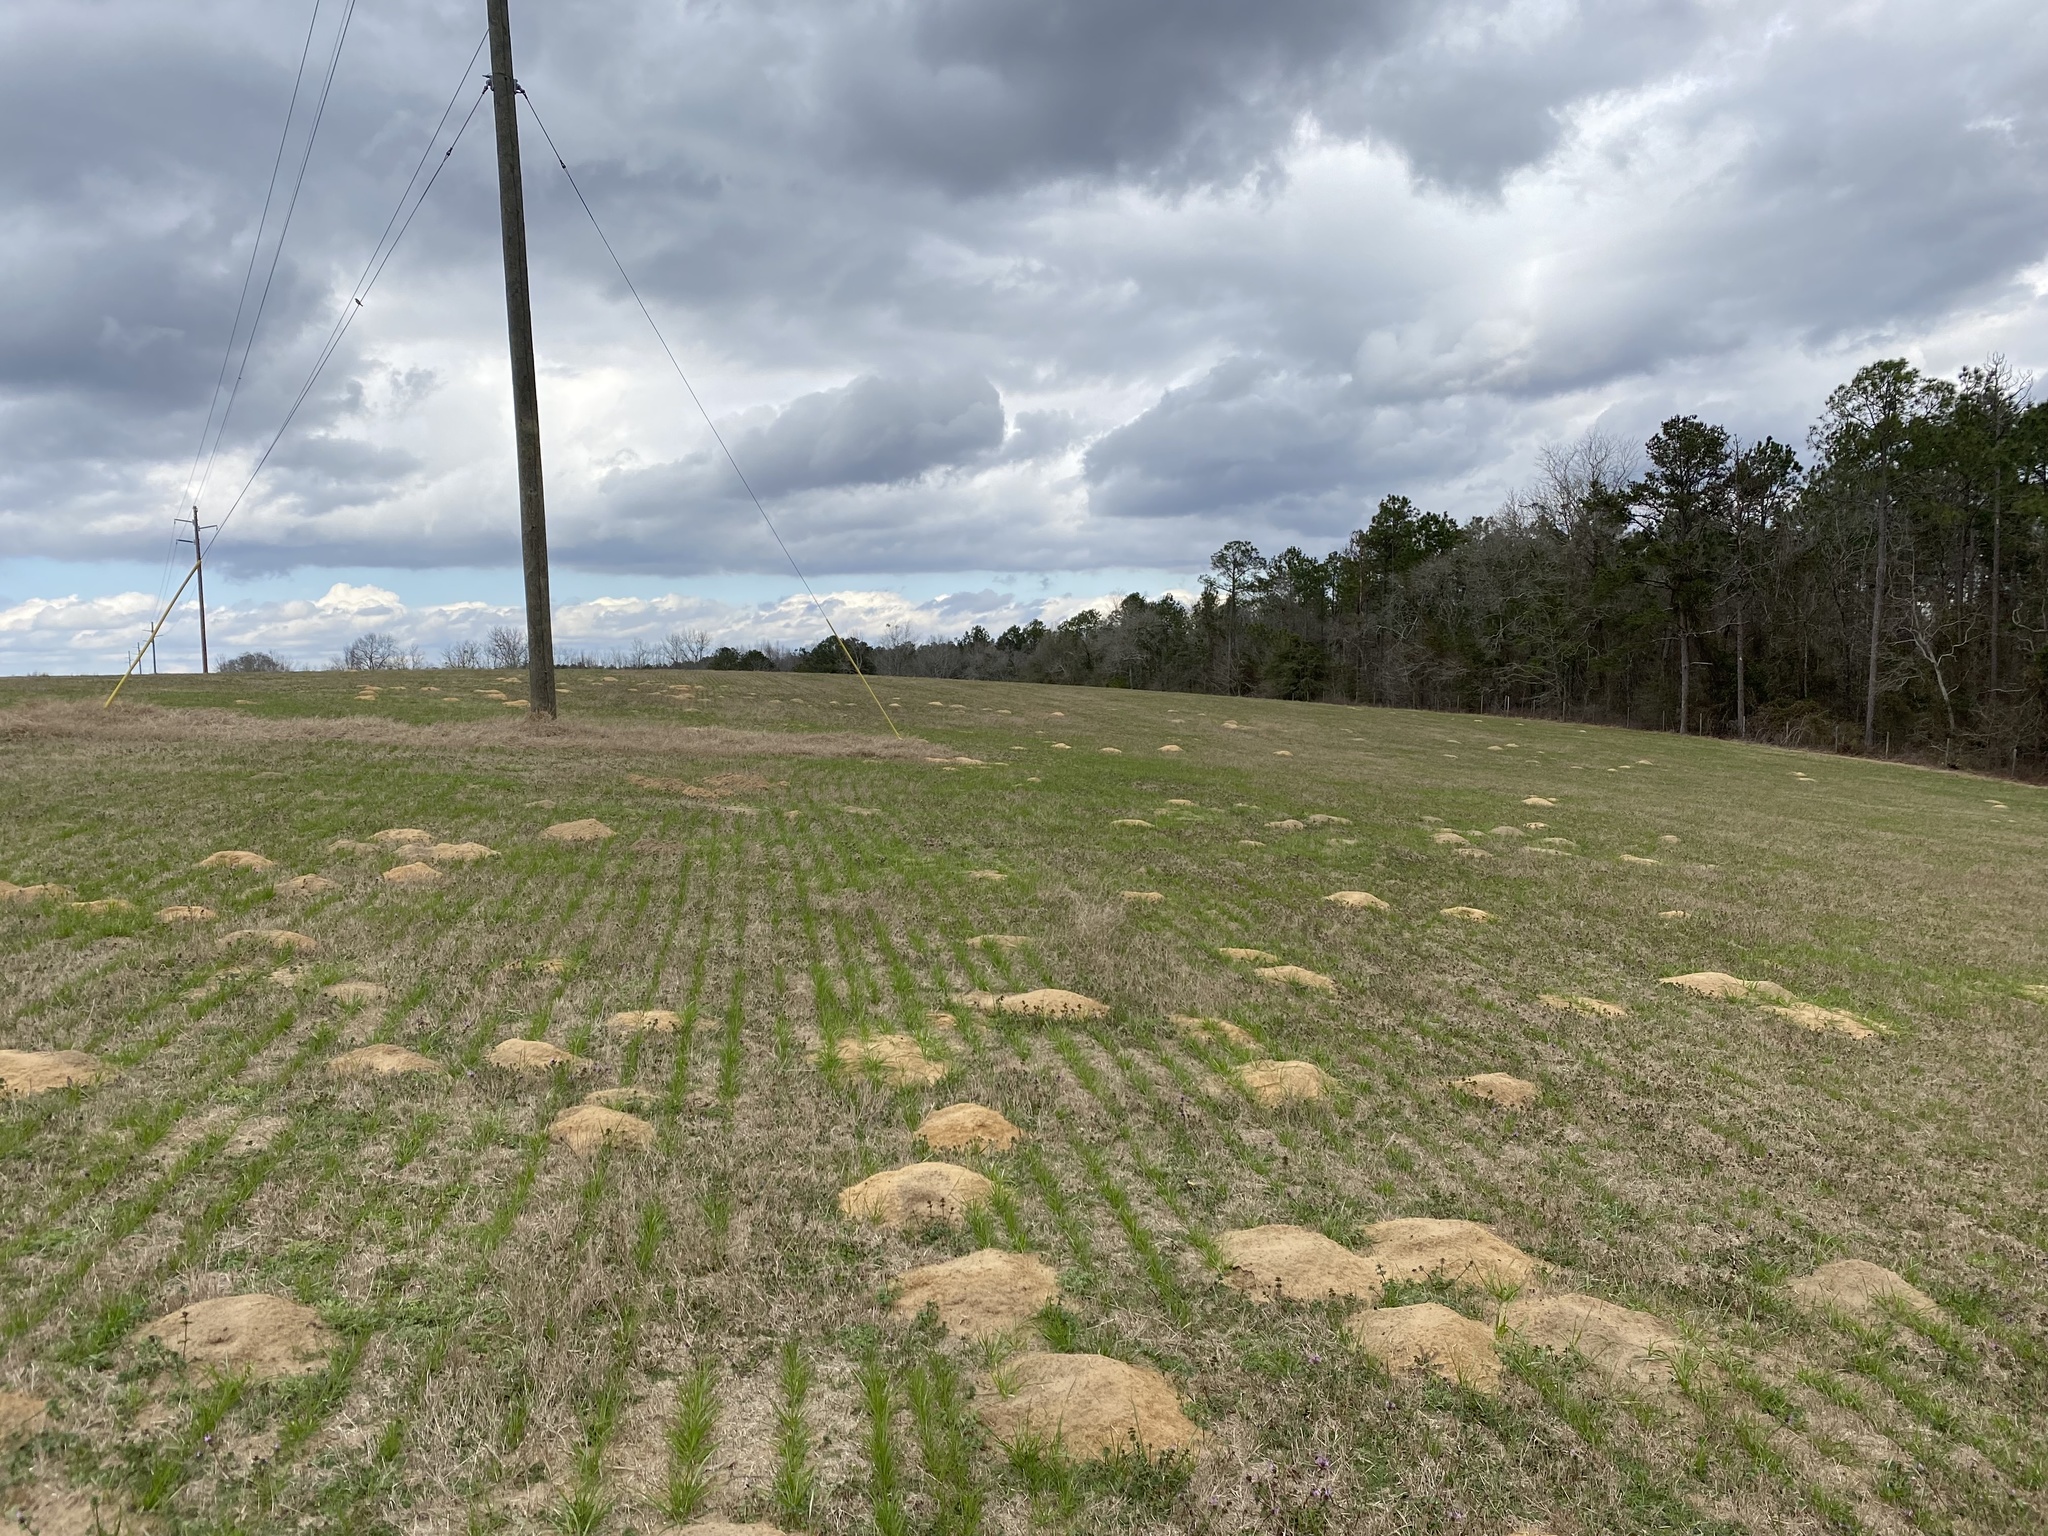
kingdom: Animalia
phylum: Chordata
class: Mammalia
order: Rodentia
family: Geomyidae
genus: Geomys
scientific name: Geomys pinetis
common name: Southeastern pocket gopher
